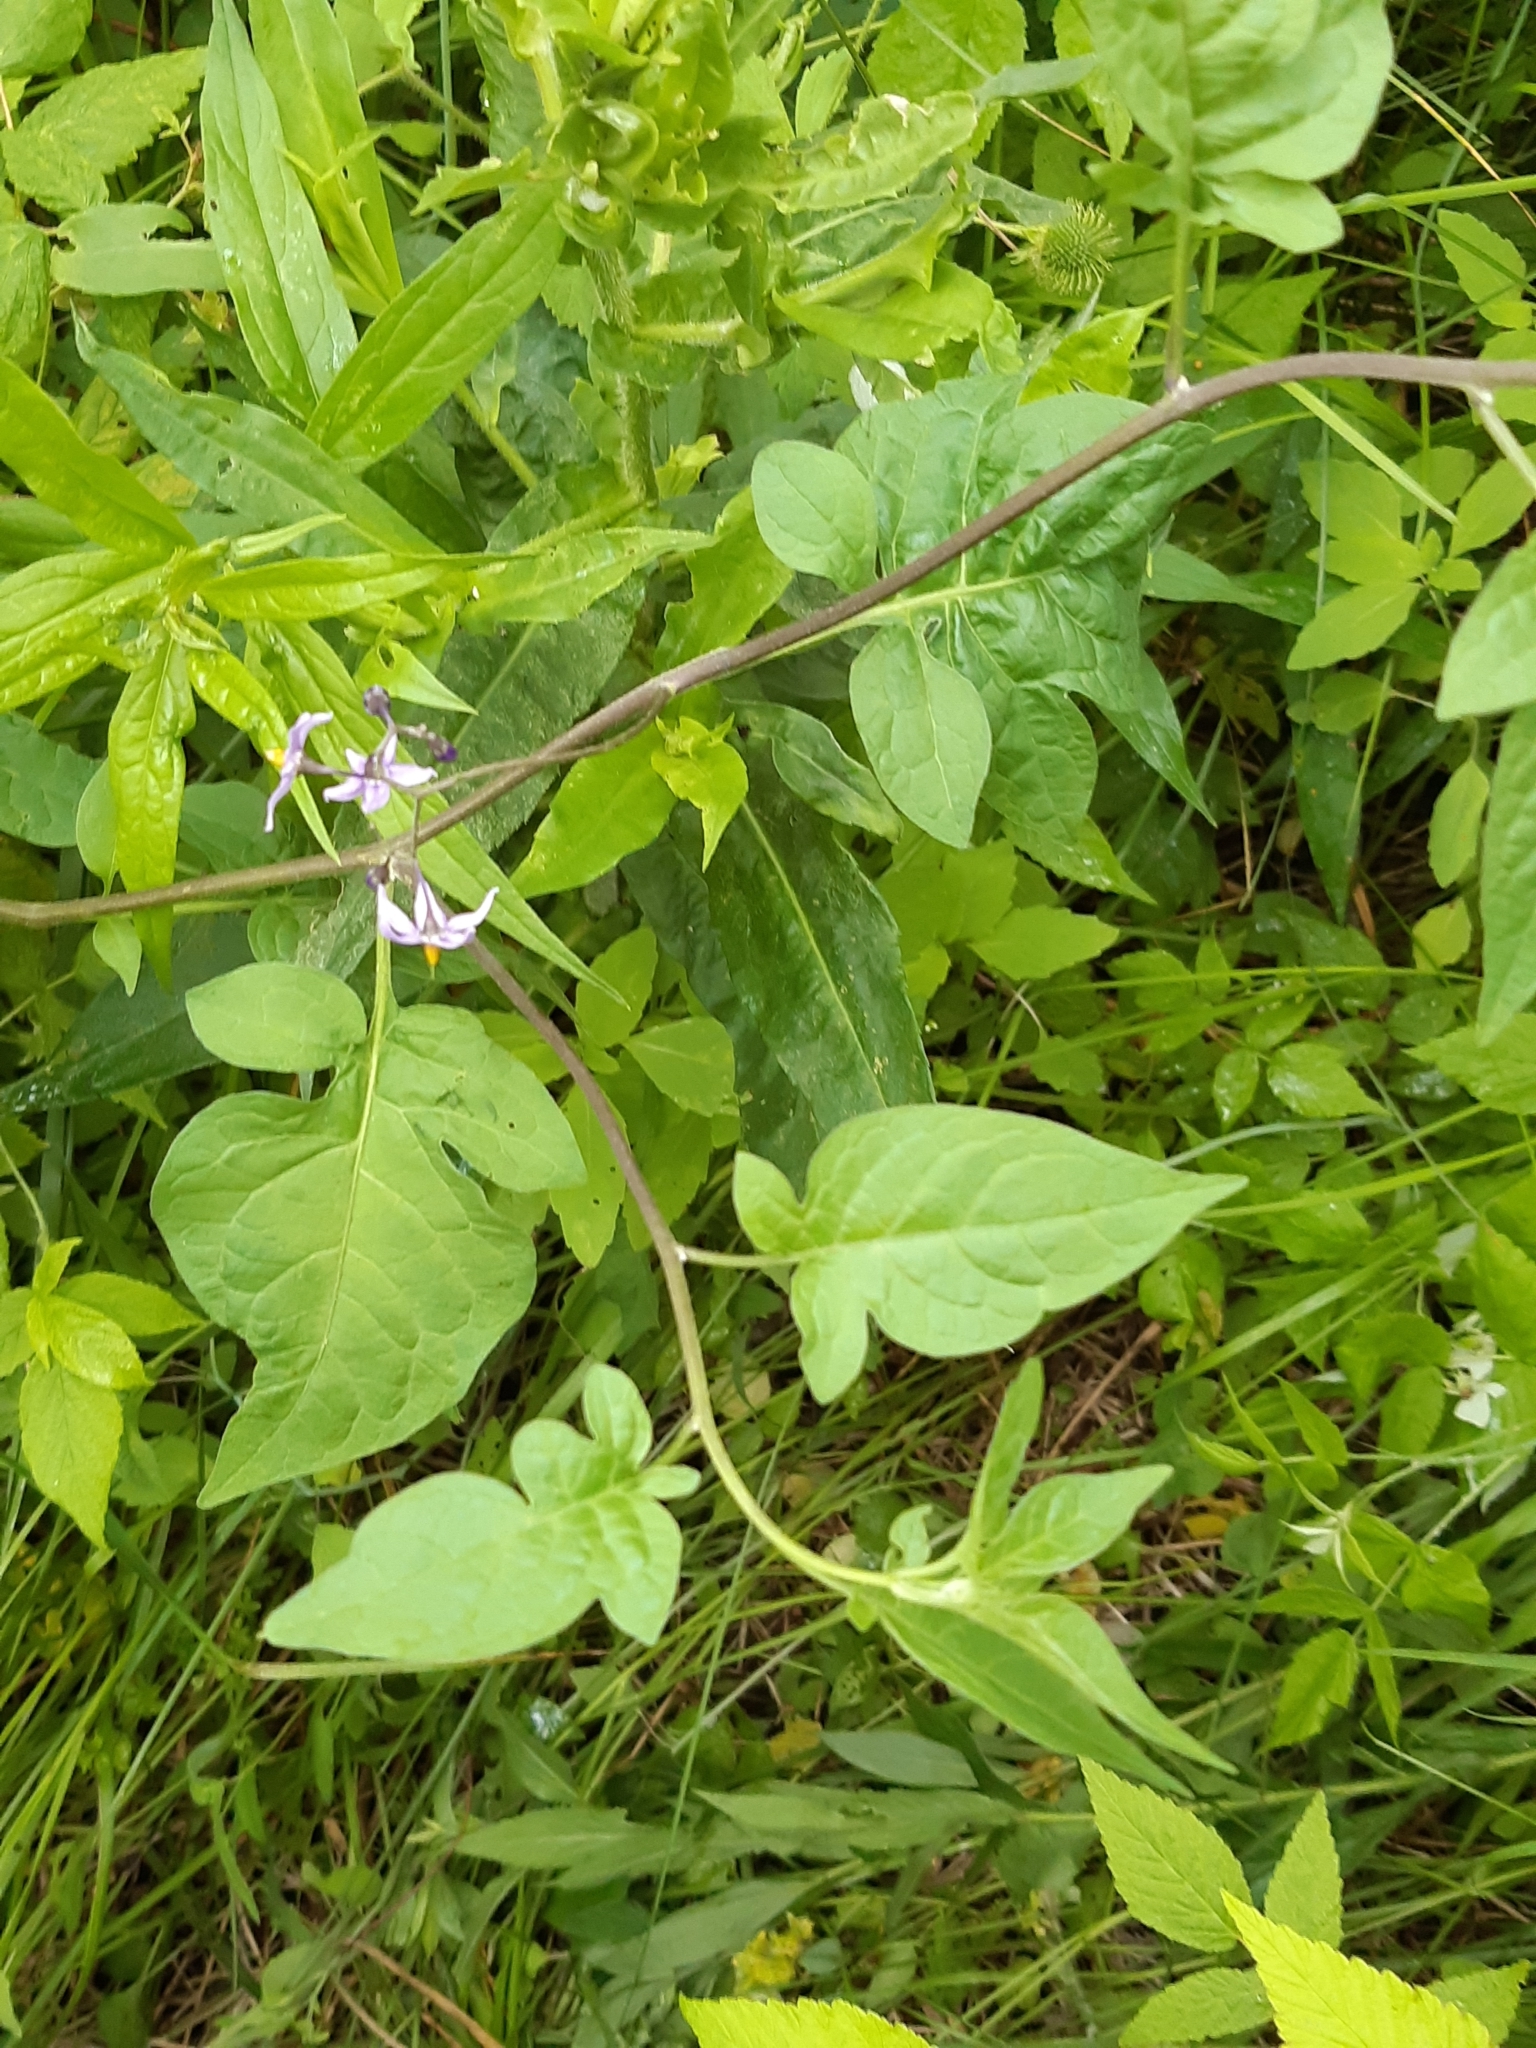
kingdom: Plantae
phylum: Tracheophyta
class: Magnoliopsida
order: Solanales
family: Solanaceae
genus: Solanum
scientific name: Solanum dulcamara
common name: Climbing nightshade
